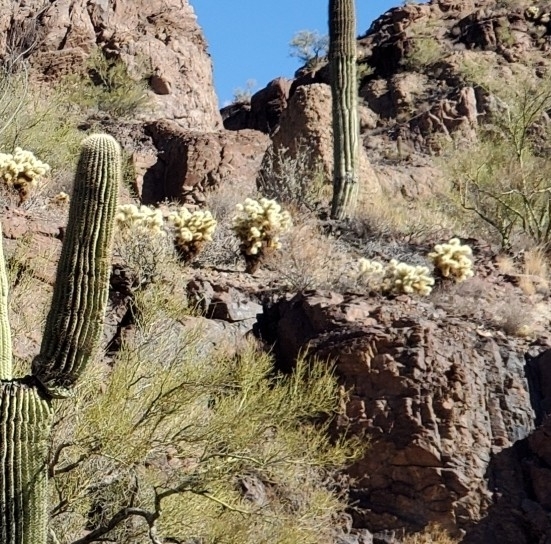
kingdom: Plantae
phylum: Tracheophyta
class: Magnoliopsida
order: Caryophyllales
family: Cactaceae
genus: Cylindropuntia
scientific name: Cylindropuntia fosbergii
